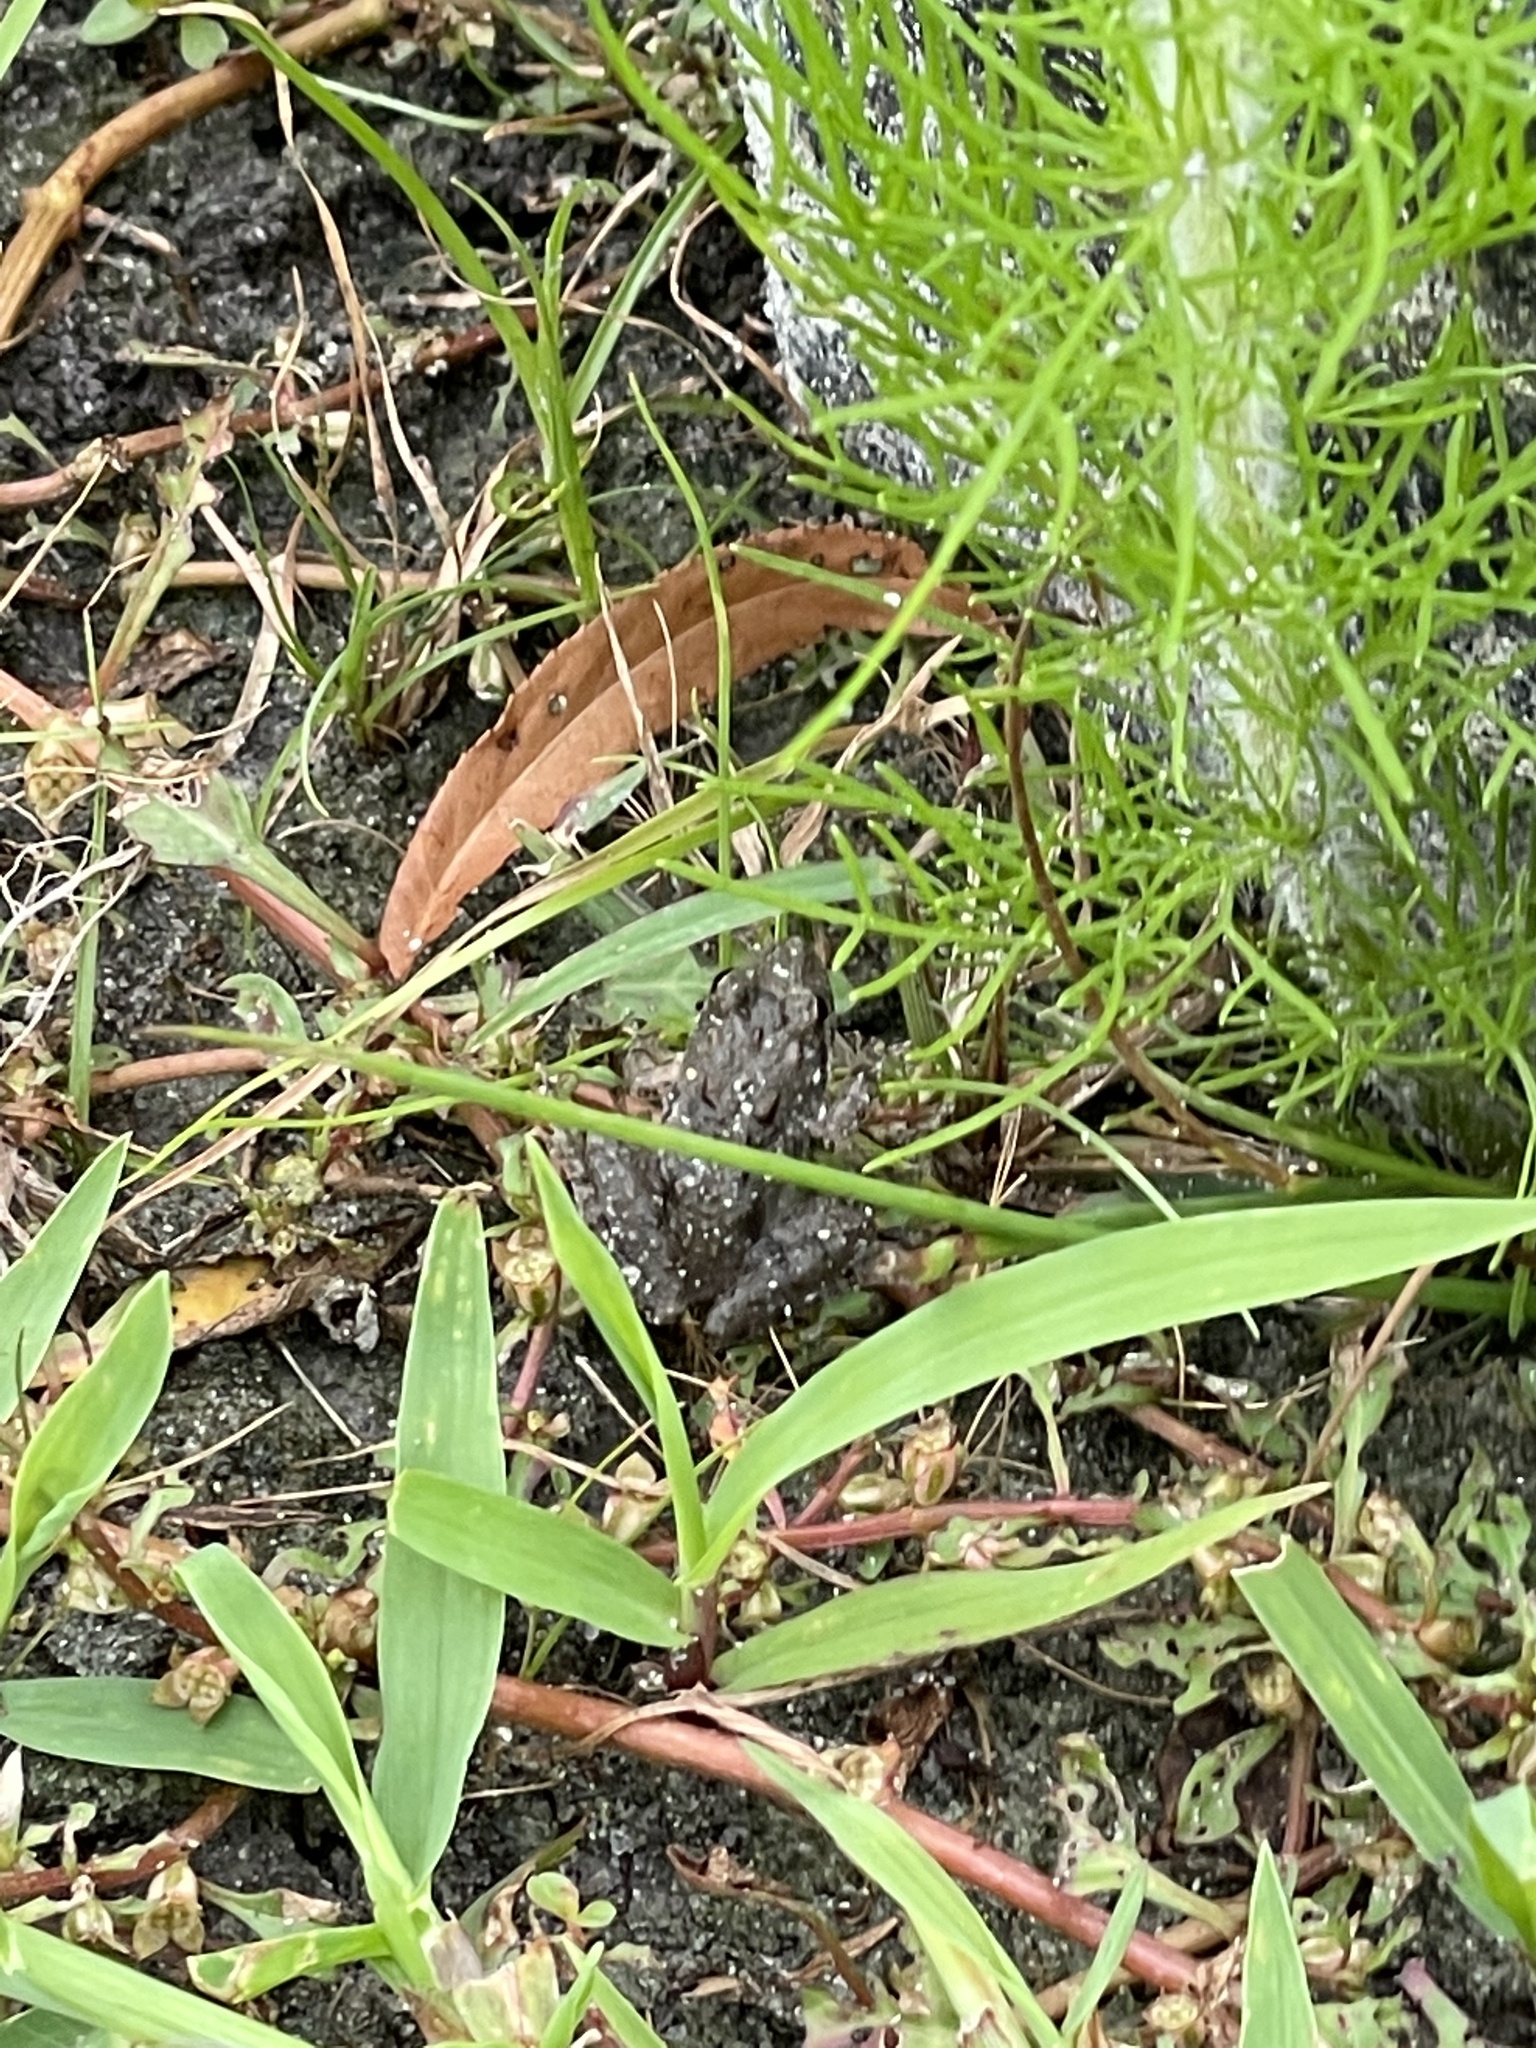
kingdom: Animalia
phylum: Chordata
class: Amphibia
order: Anura
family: Hylidae
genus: Acris
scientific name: Acris crepitans
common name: Northern cricket frog
